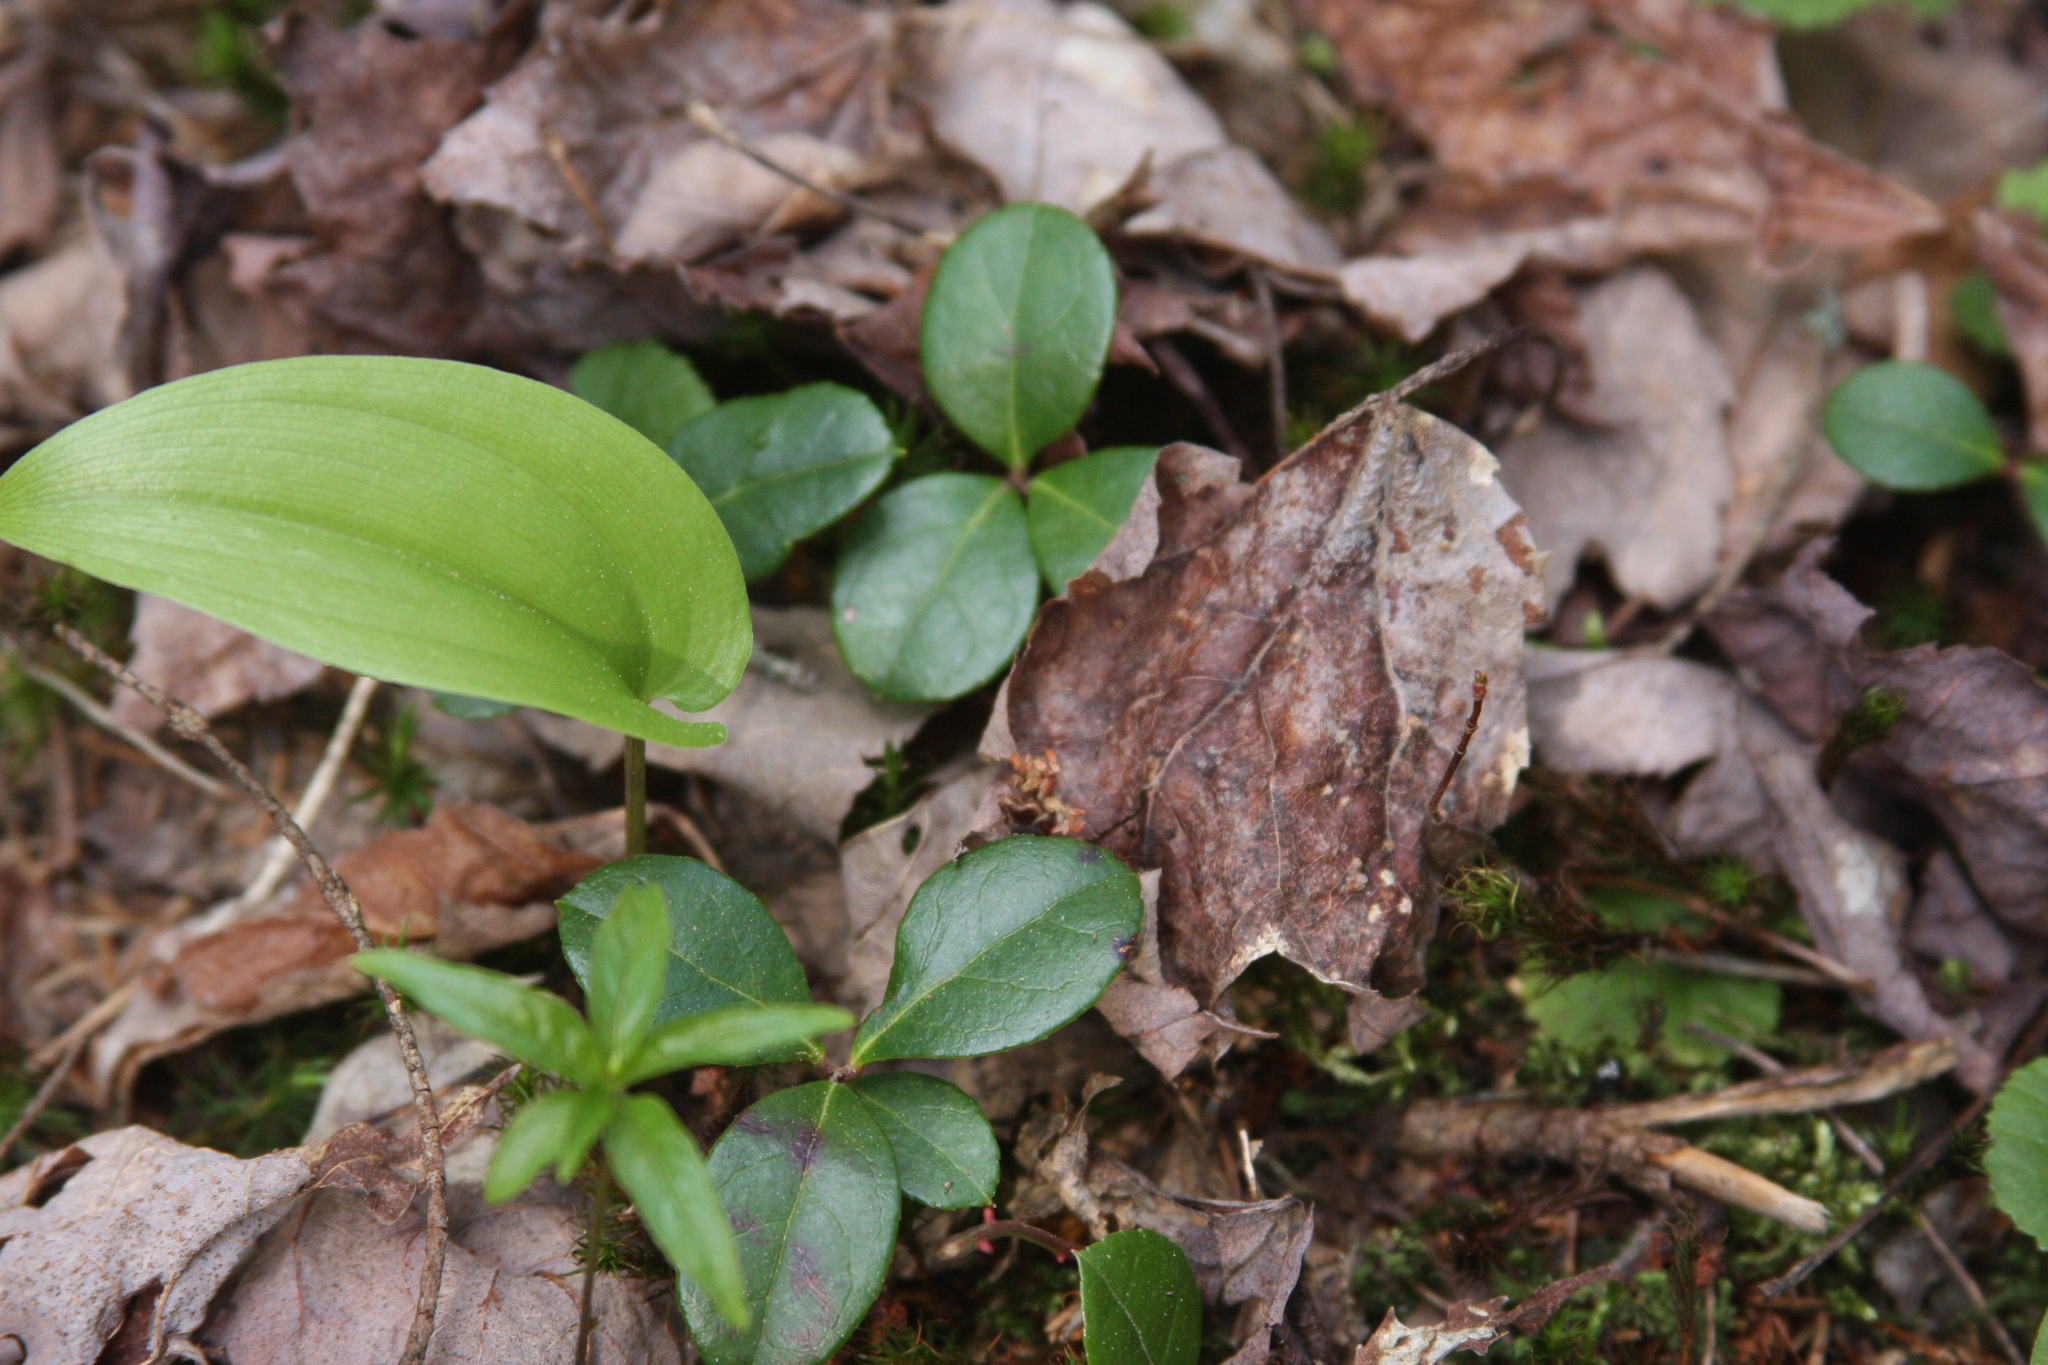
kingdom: Plantae
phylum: Tracheophyta
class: Magnoliopsida
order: Ericales
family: Ericaceae
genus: Gaultheria
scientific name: Gaultheria procumbens
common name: Checkerberry
